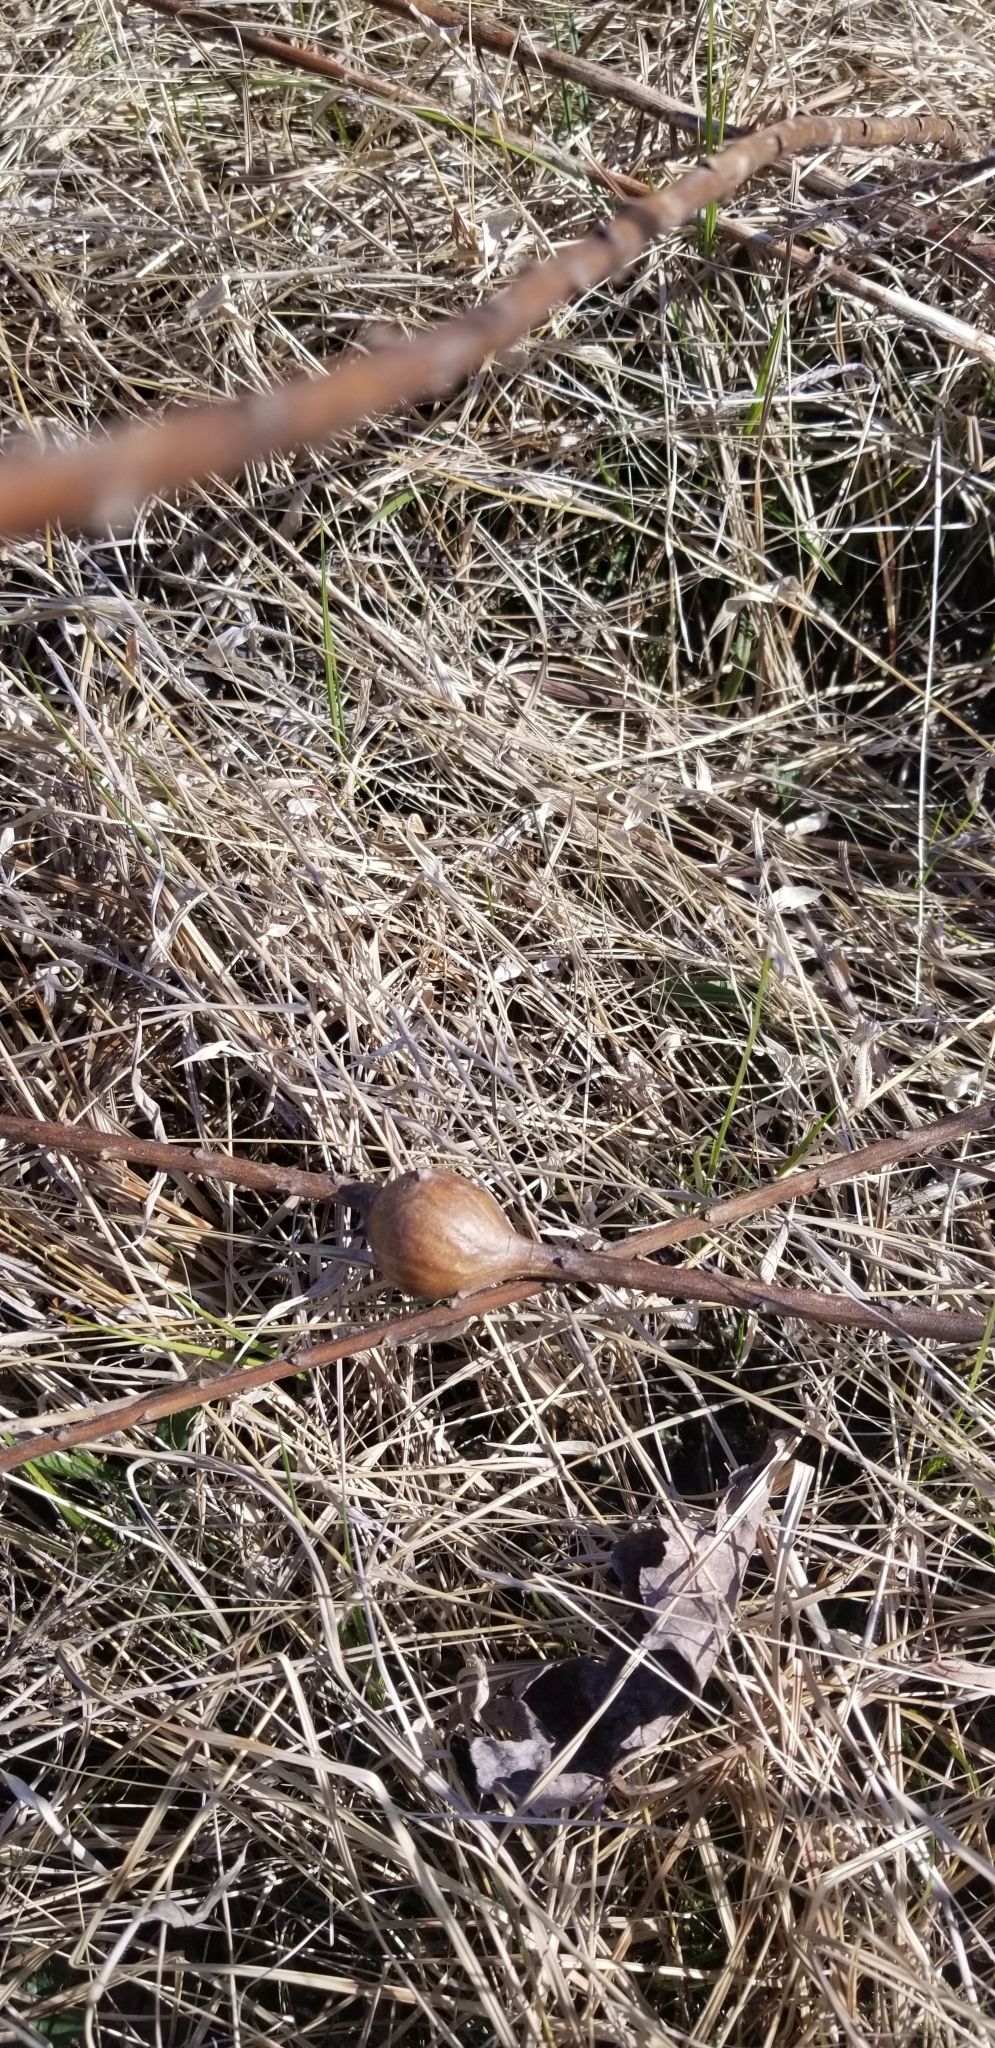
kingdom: Animalia
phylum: Arthropoda
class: Insecta
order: Diptera
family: Tephritidae
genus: Eurosta
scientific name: Eurosta solidaginis
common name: Goldenrod gall fly
